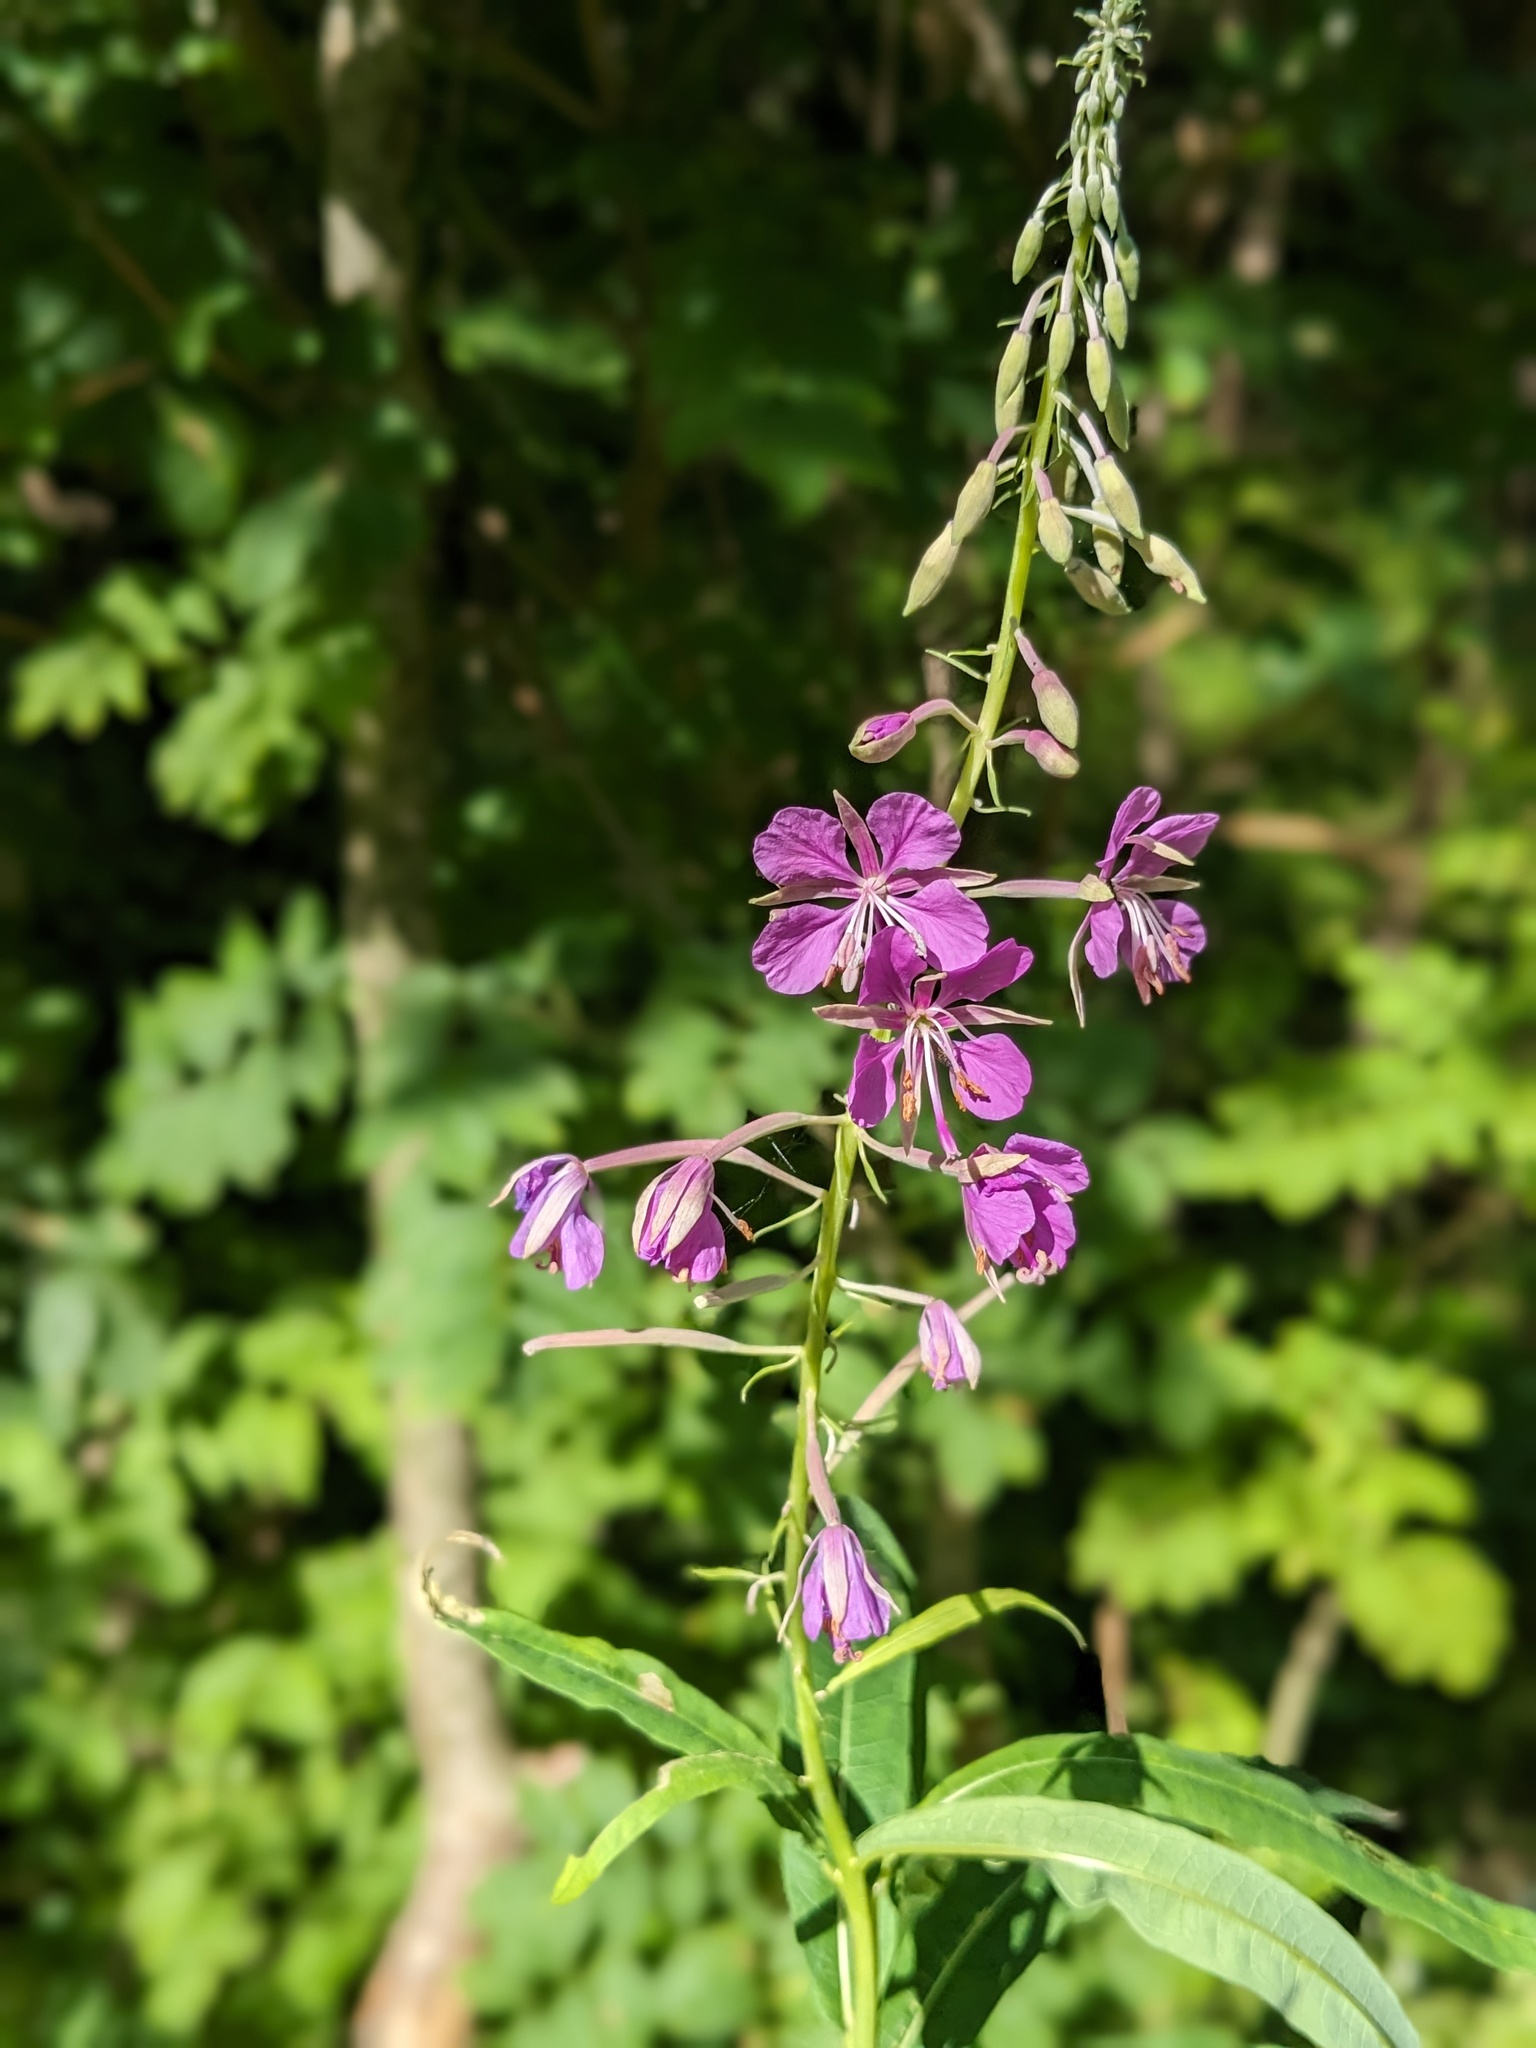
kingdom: Plantae
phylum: Tracheophyta
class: Magnoliopsida
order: Myrtales
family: Onagraceae
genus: Chamaenerion
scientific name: Chamaenerion angustifolium
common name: Fireweed
